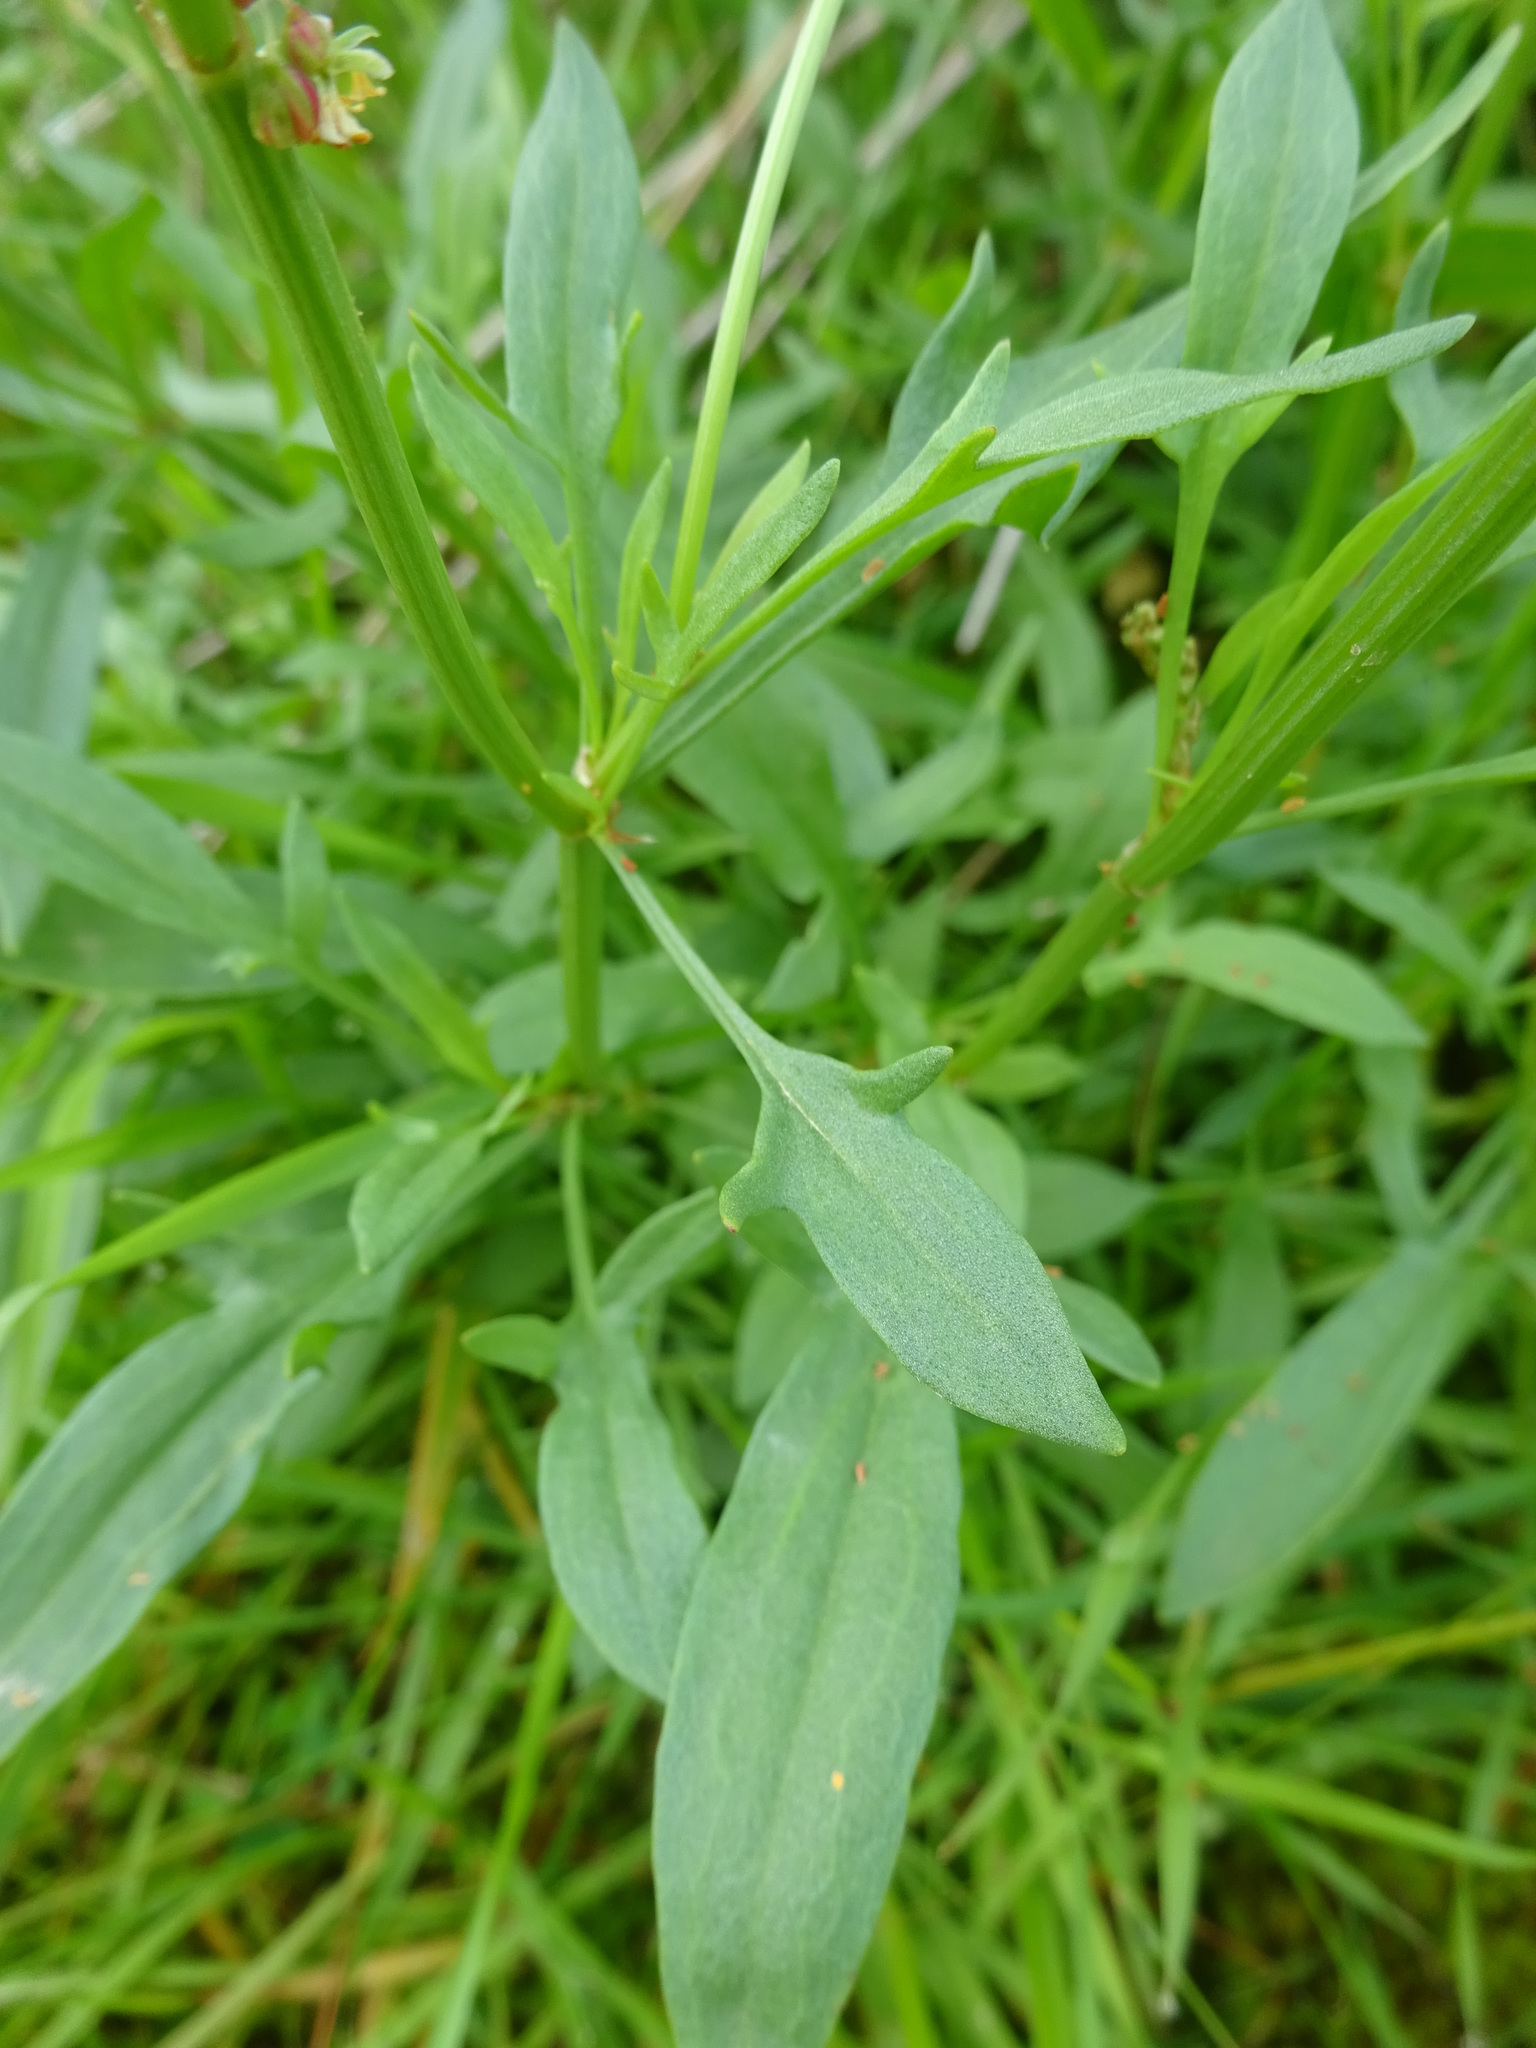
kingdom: Plantae
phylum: Tracheophyta
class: Magnoliopsida
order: Caryophyllales
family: Polygonaceae
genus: Rumex
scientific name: Rumex acetosella
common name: Common sheep sorrel
